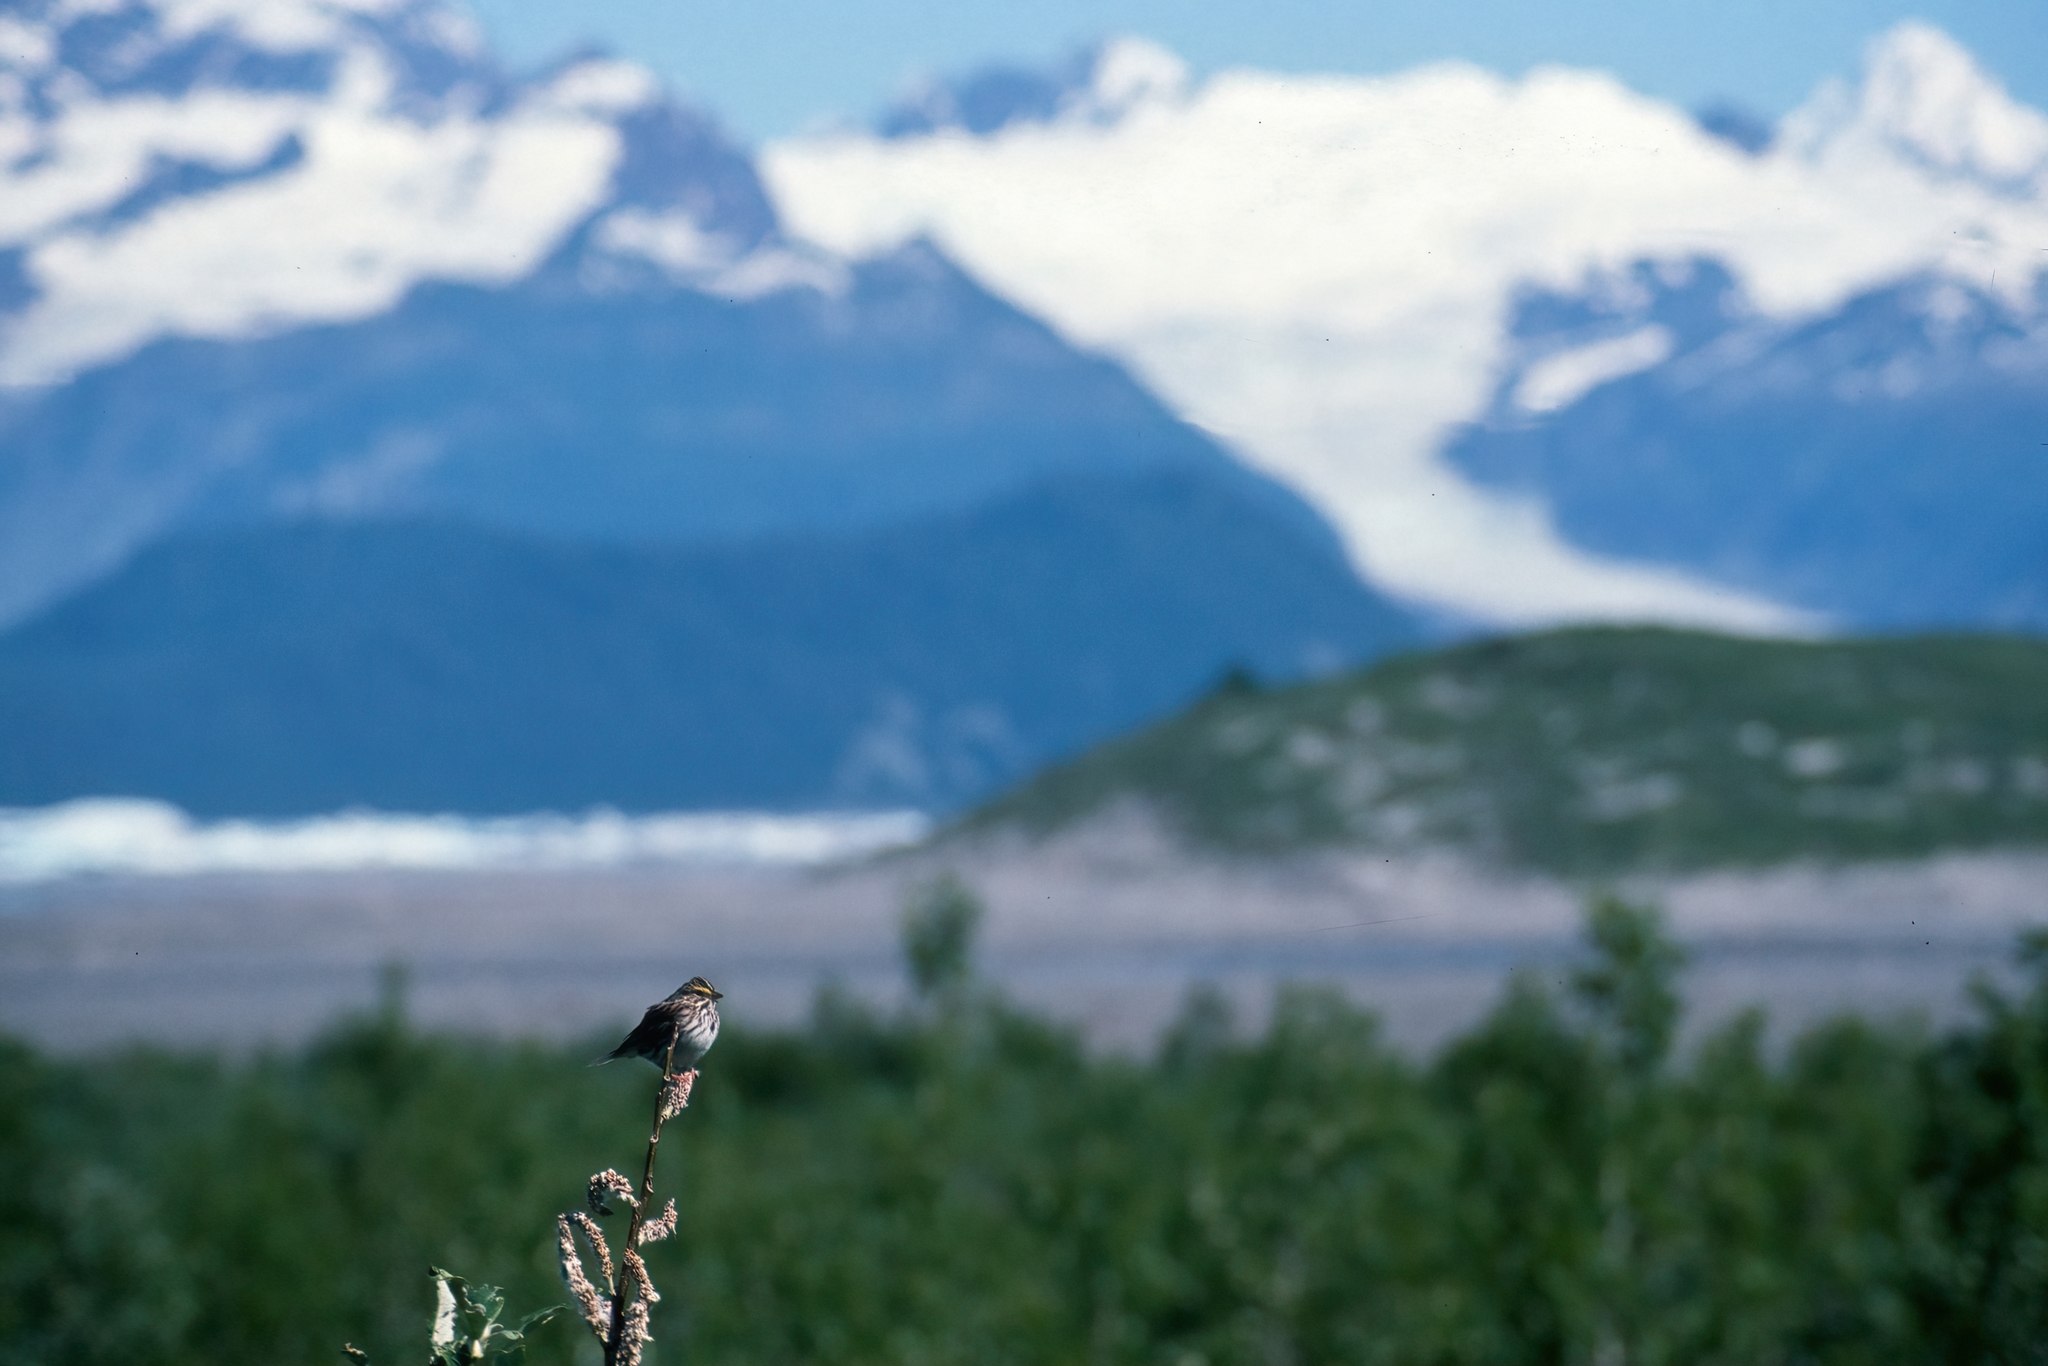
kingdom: Animalia
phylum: Chordata
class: Aves
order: Passeriformes
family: Passerellidae
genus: Passerculus
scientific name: Passerculus sandwichensis
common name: Savannah sparrow
